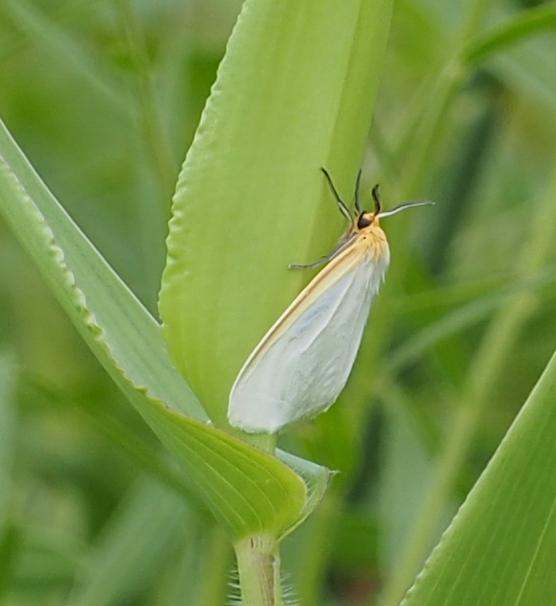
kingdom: Animalia
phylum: Arthropoda
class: Insecta
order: Lepidoptera
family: Erebidae
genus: Cycnia
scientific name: Cycnia tenera
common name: Delicate cycnia moth
